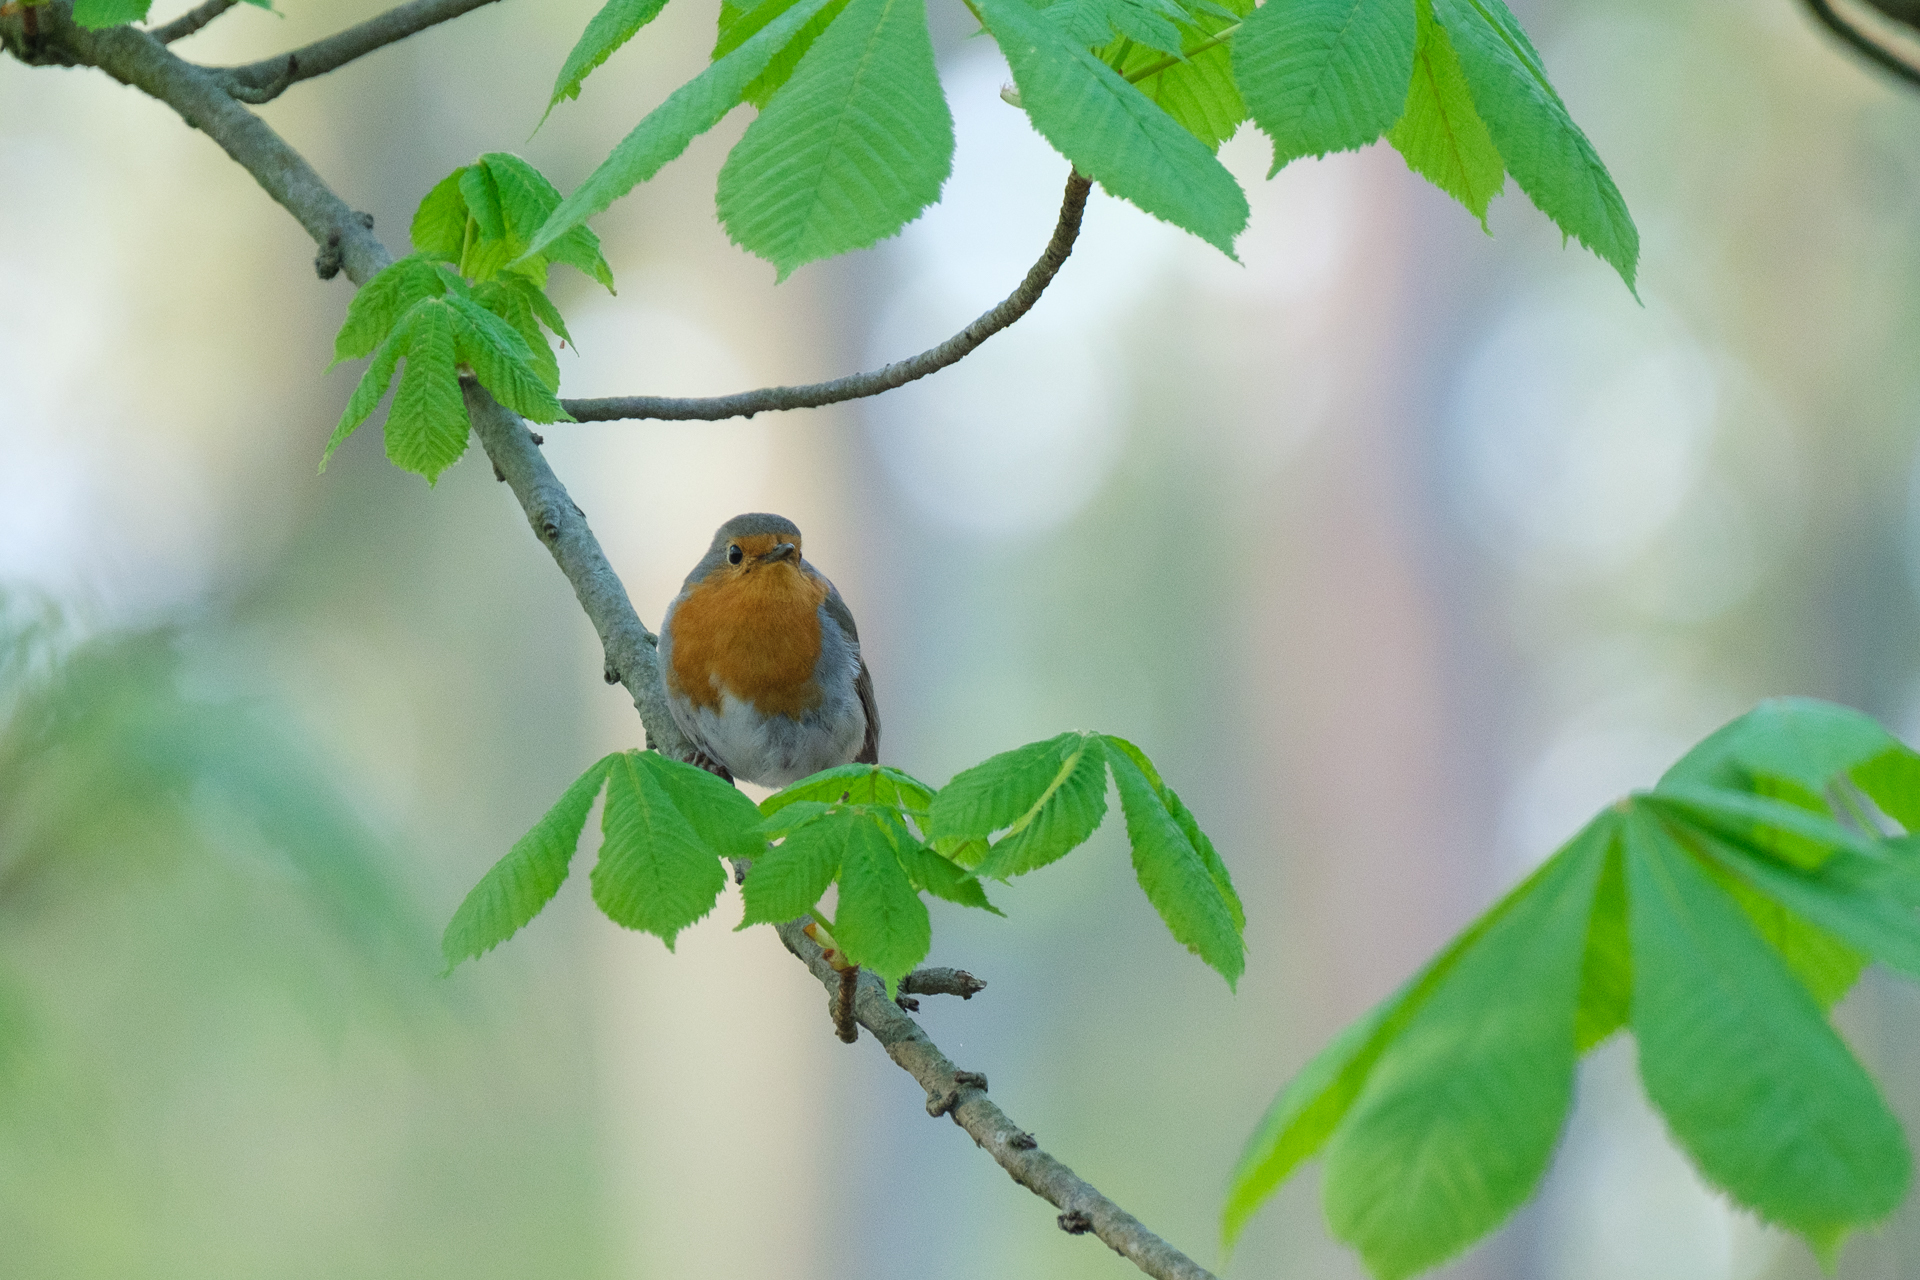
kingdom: Animalia
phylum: Chordata
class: Aves
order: Passeriformes
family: Muscicapidae
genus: Erithacus
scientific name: Erithacus rubecula
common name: European robin
